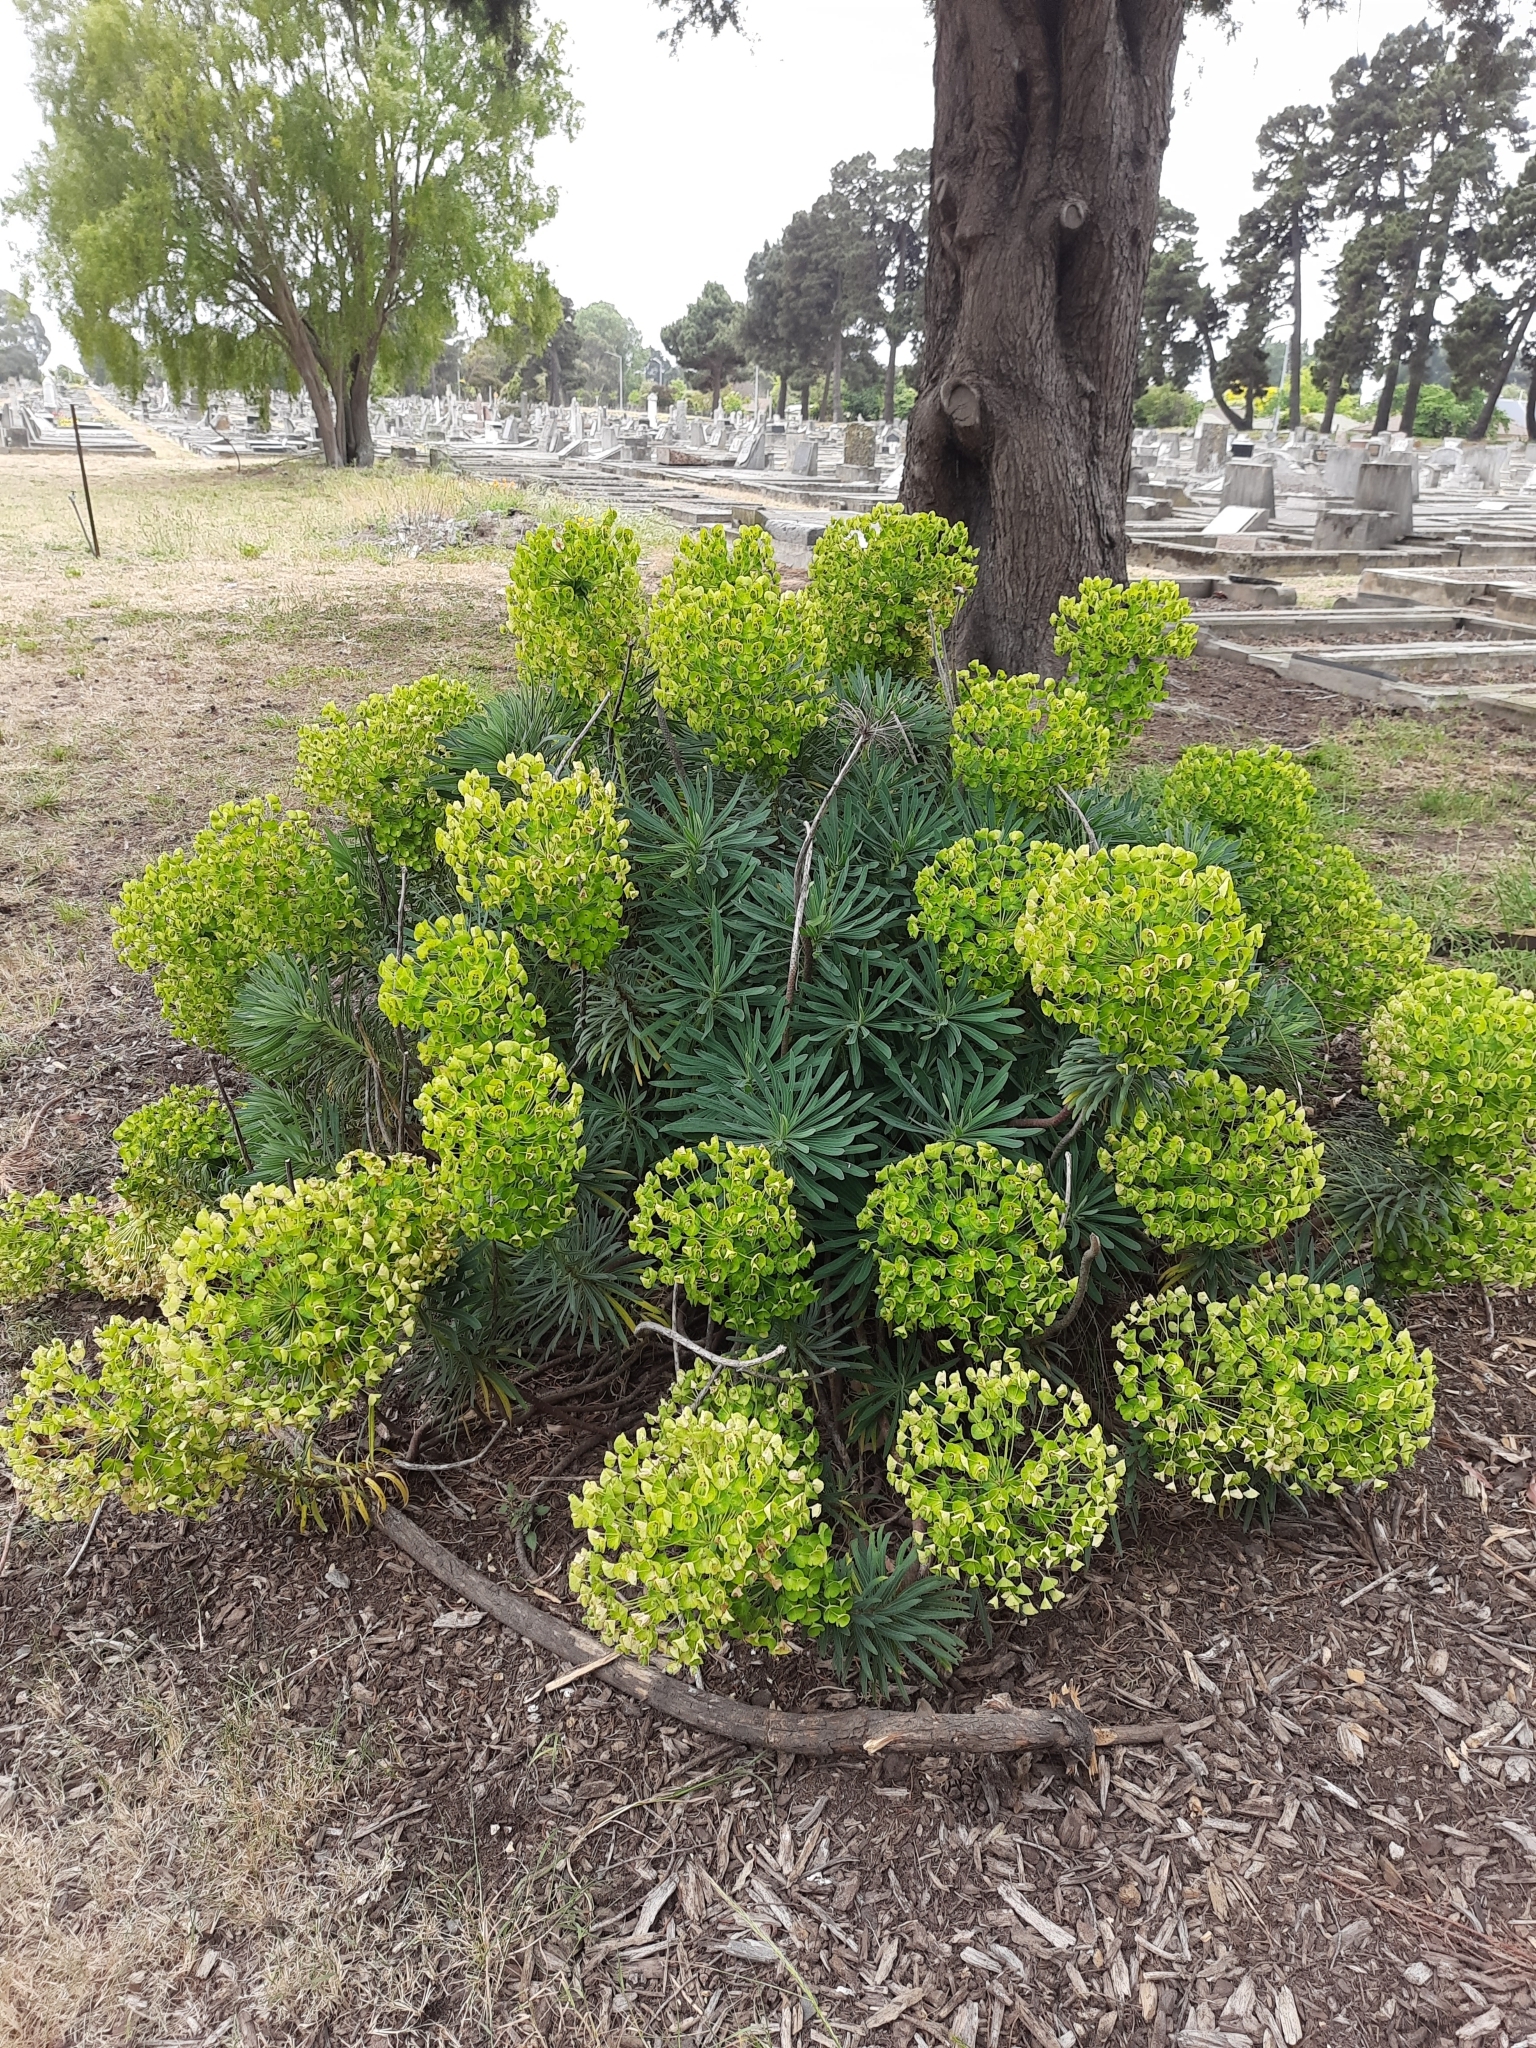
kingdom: Plantae
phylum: Tracheophyta
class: Magnoliopsida
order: Malpighiales
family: Euphorbiaceae
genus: Euphorbia
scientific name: Euphorbia characias
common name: Mediterranean spurge
